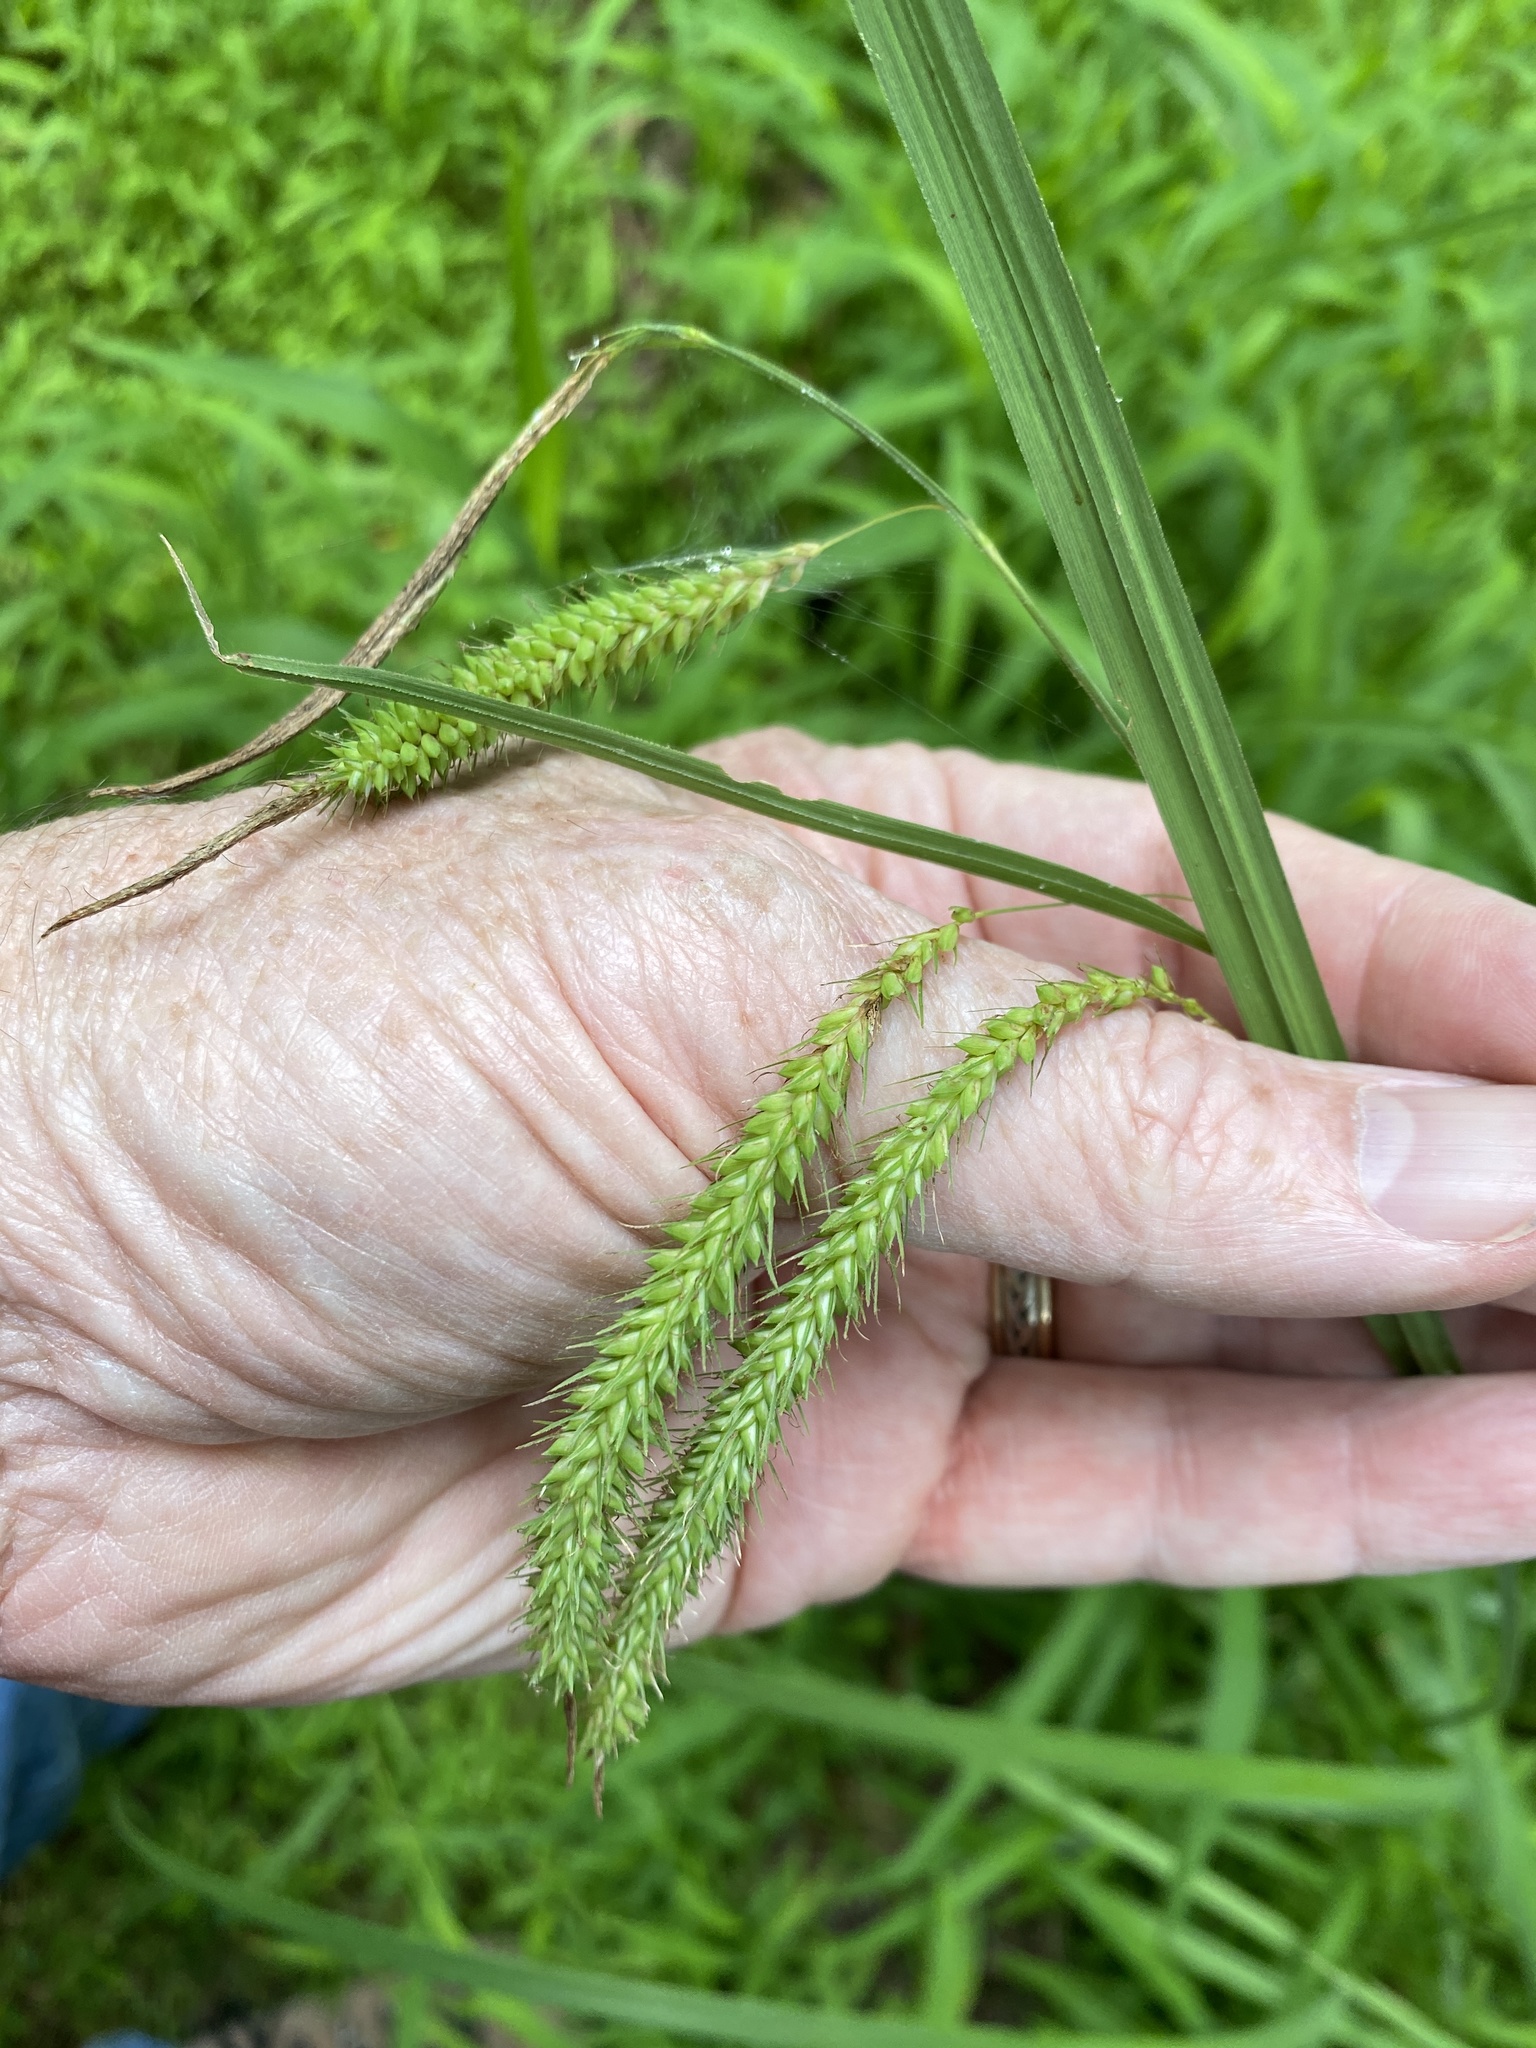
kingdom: Plantae
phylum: Tracheophyta
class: Liliopsida
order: Poales
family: Cyperaceae
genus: Carex
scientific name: Carex gynandra
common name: Nodding sedge
